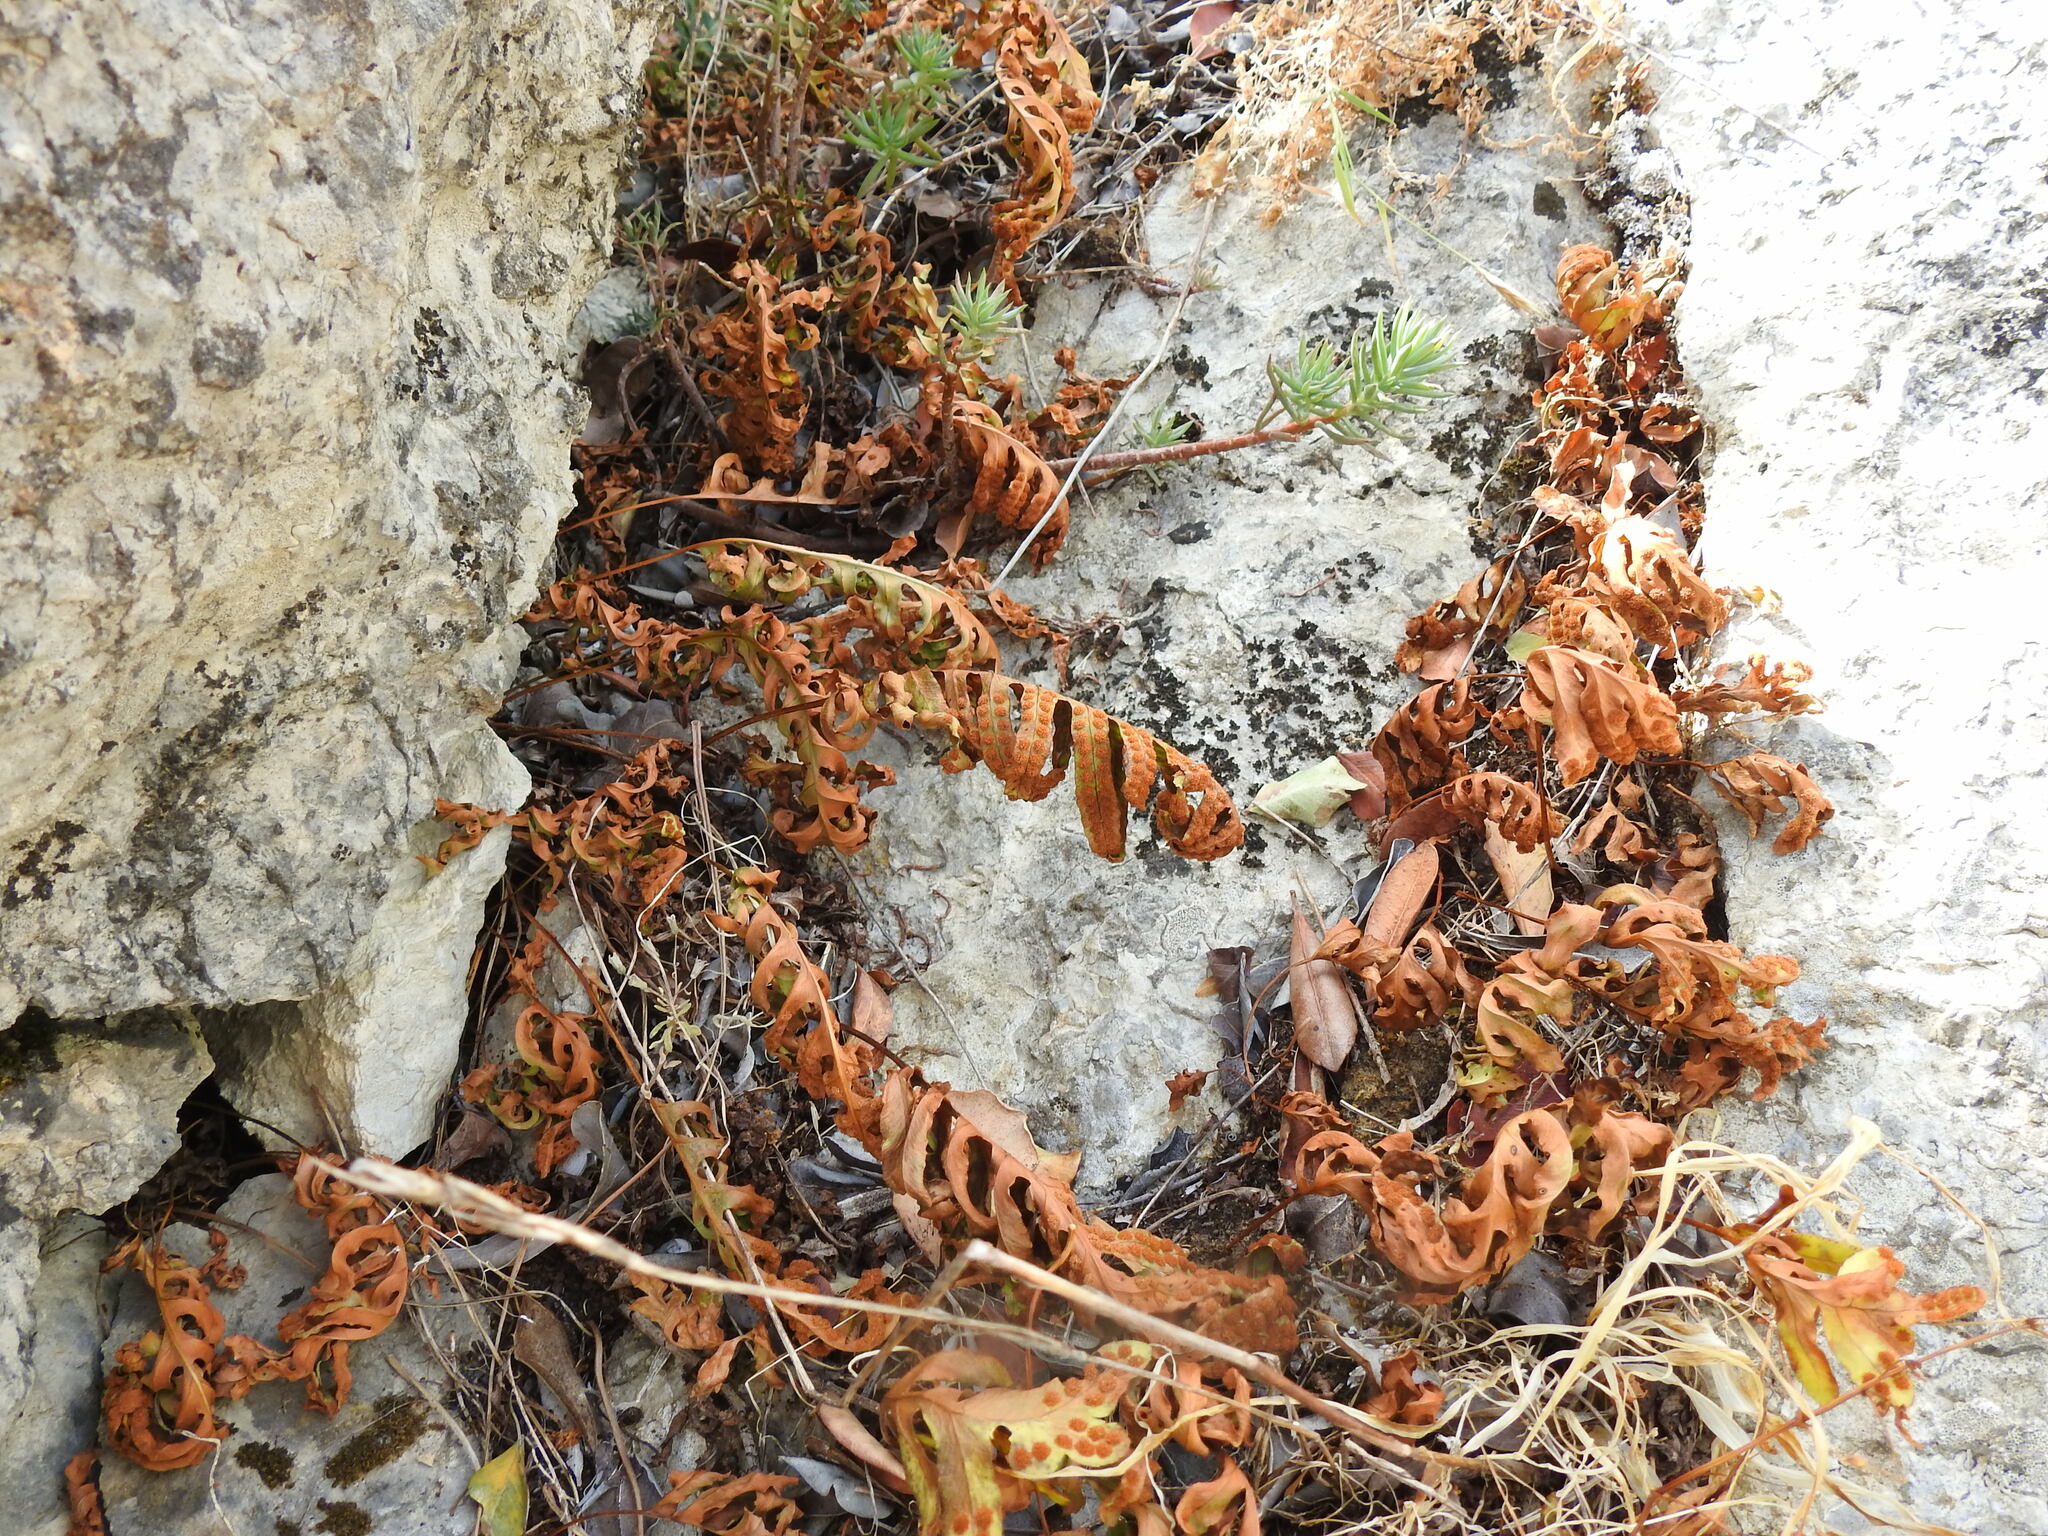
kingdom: Plantae
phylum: Tracheophyta
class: Polypodiopsida
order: Polypodiales
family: Polypodiaceae
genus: Polypodium
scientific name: Polypodium cambricum
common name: Southern polypody
